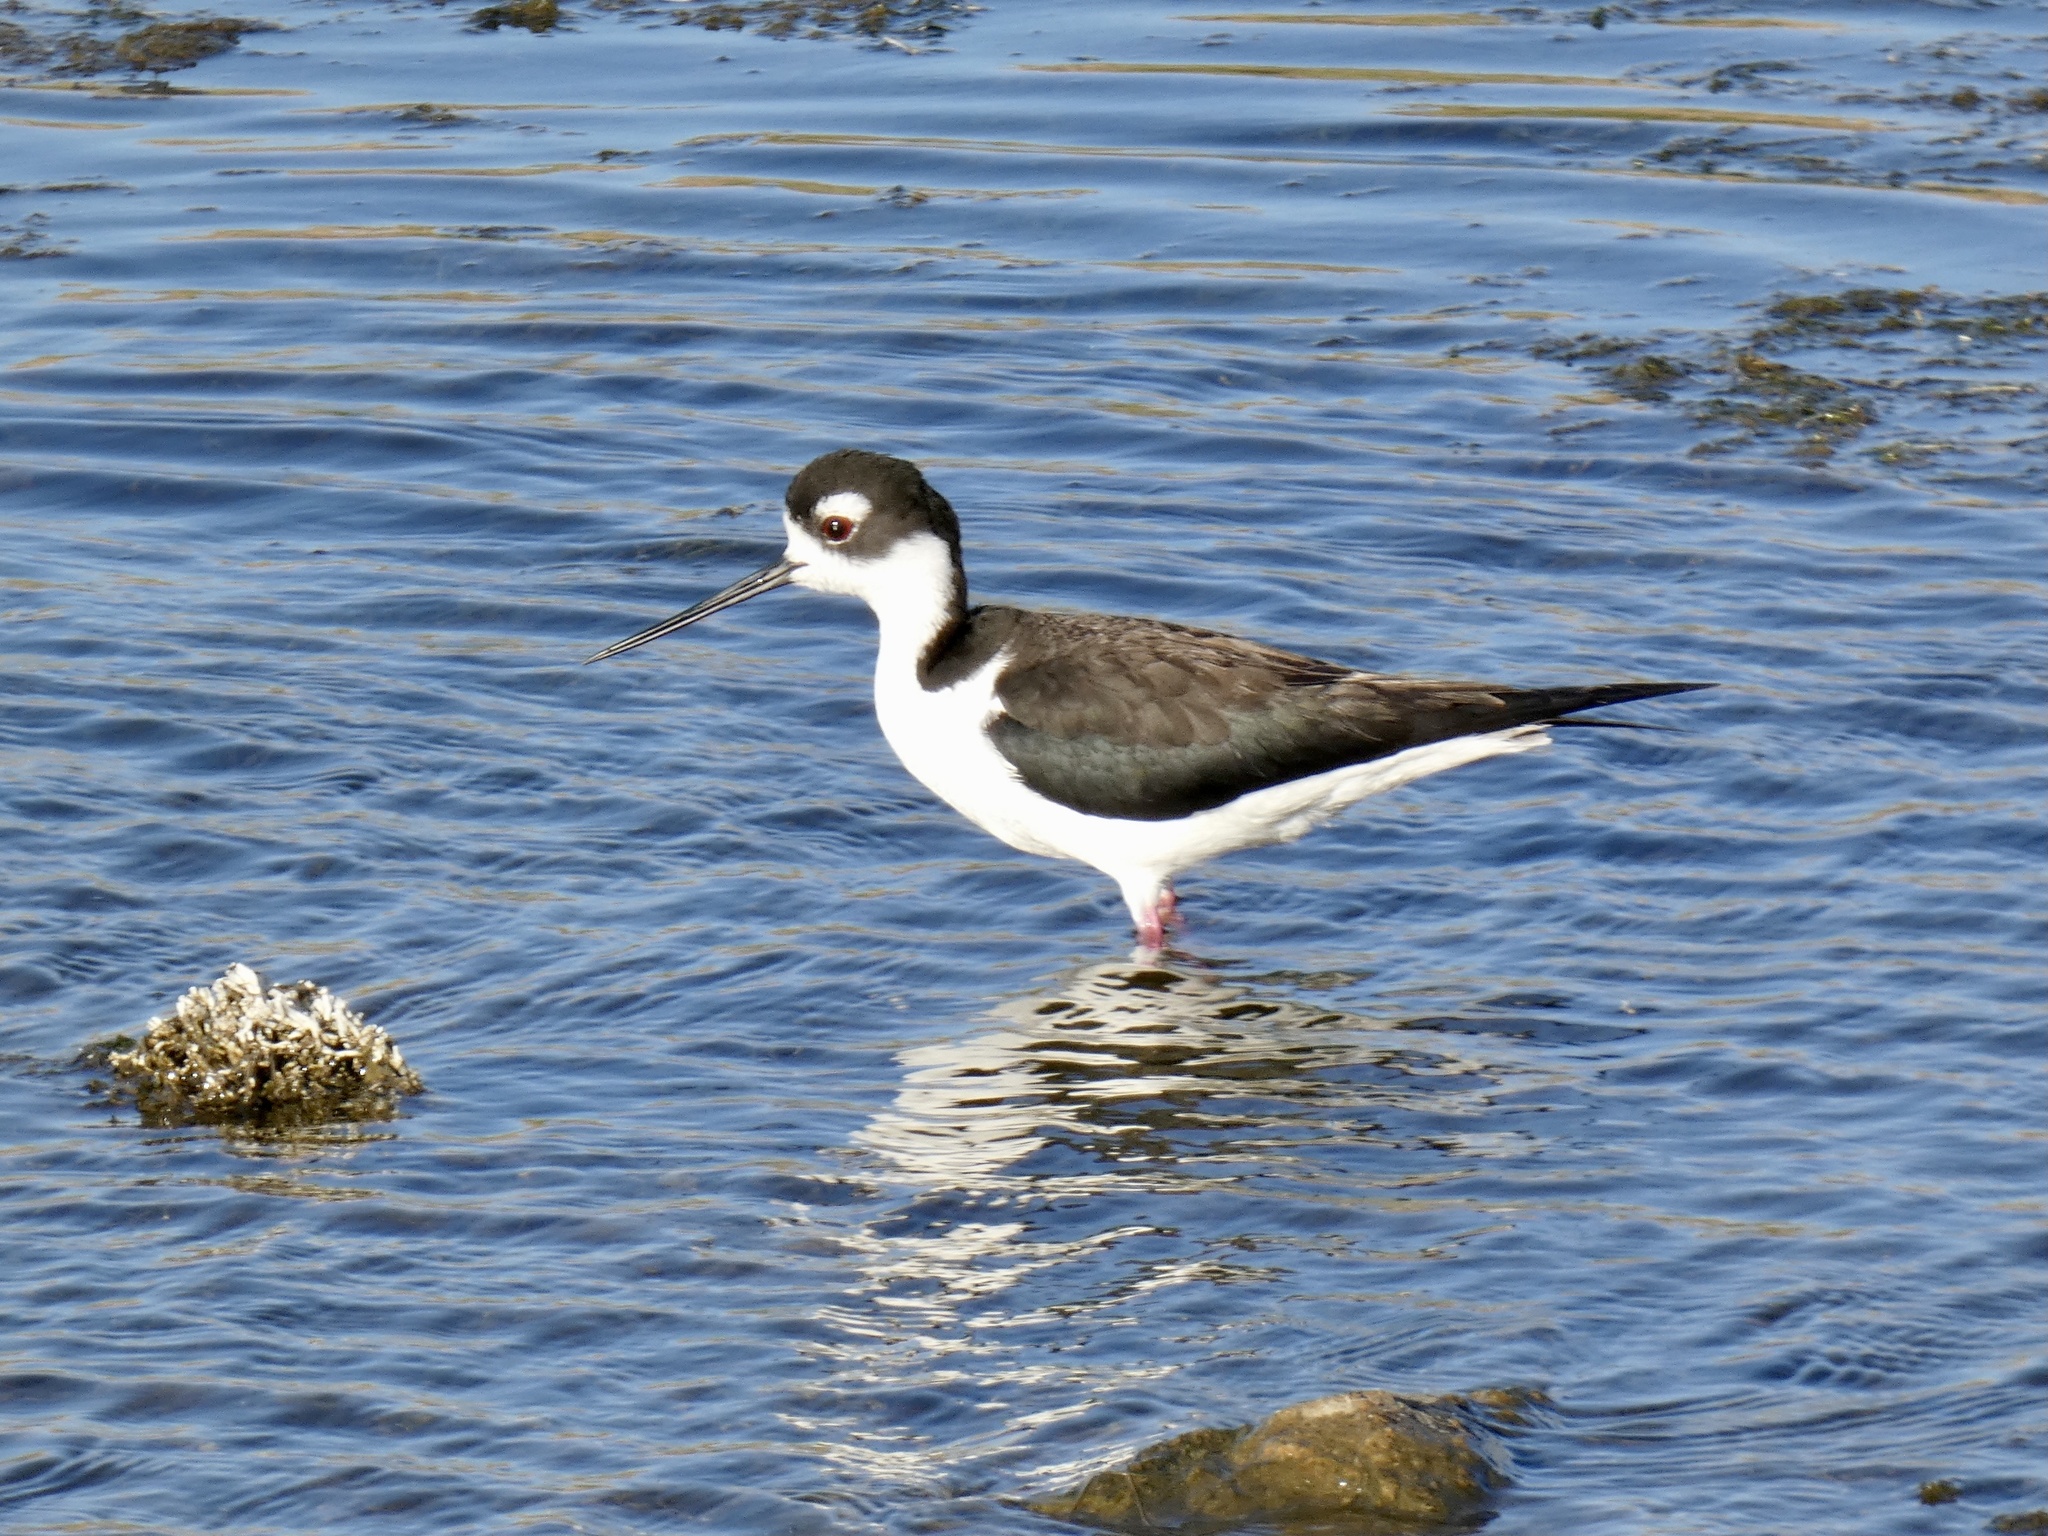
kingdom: Animalia
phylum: Chordata
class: Aves
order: Charadriiformes
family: Recurvirostridae
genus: Himantopus
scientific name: Himantopus mexicanus
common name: Black-necked stilt
